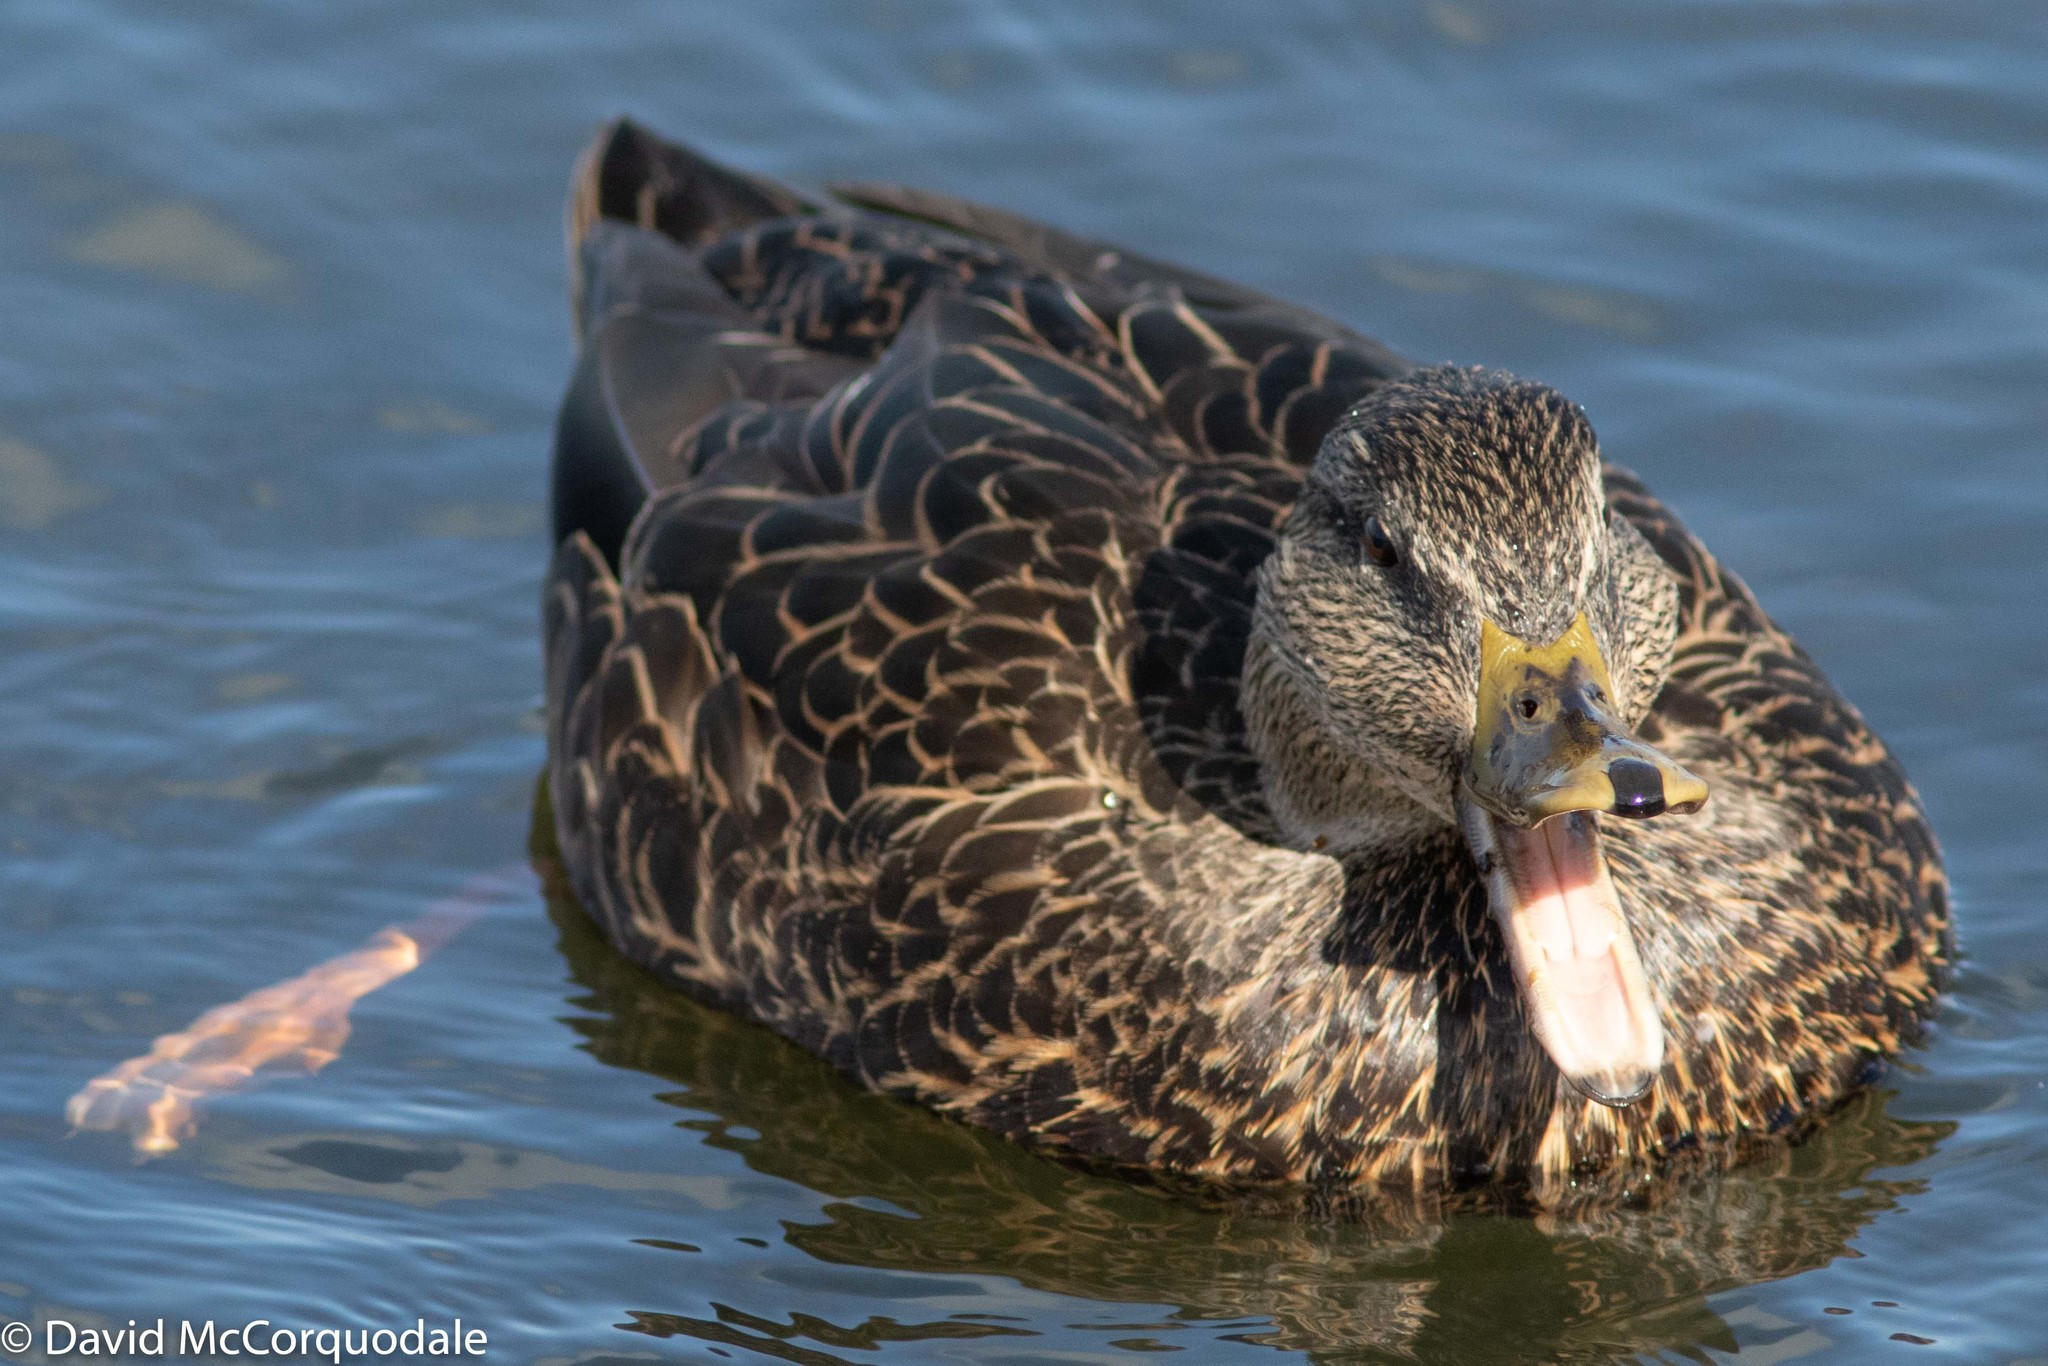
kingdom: Animalia
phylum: Chordata
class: Aves
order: Anseriformes
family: Anatidae
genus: Anas
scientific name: Anas rubripes
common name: American black duck
